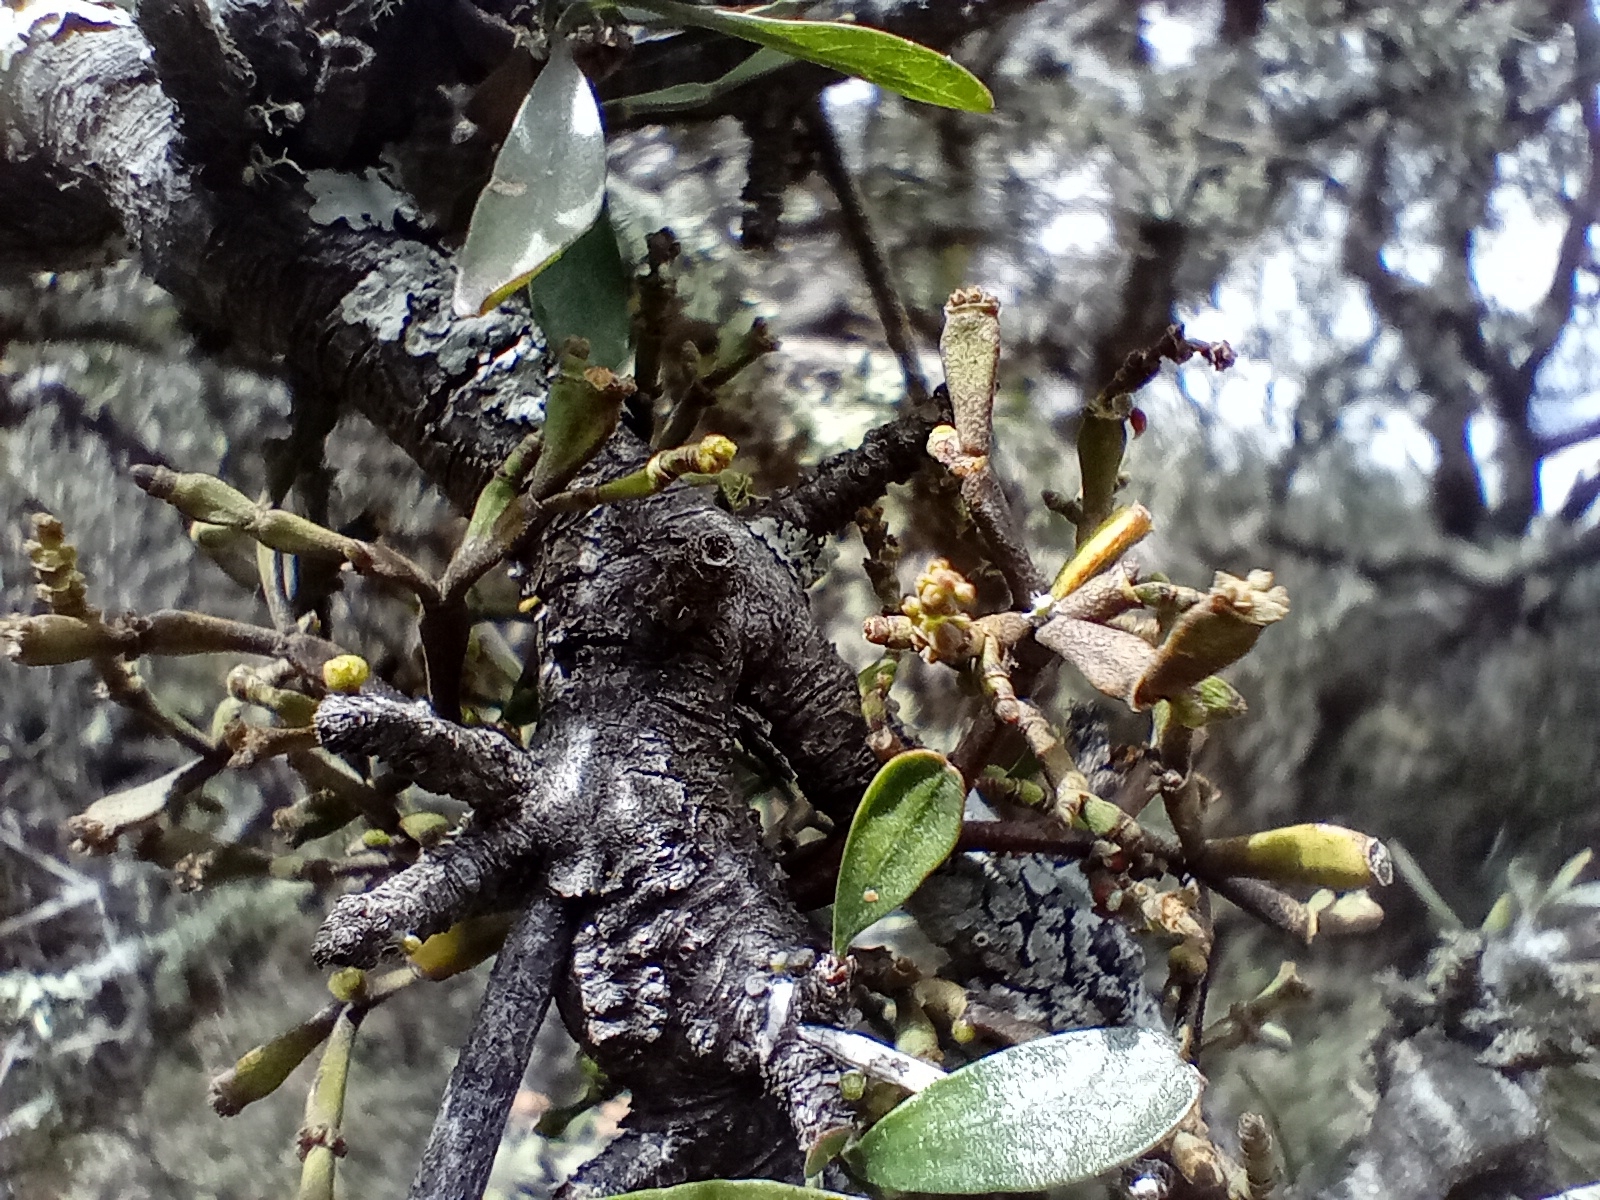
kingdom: Plantae
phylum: Tracheophyta
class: Magnoliopsida
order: Santalales
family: Viscaceae
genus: Korthalsella
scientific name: Korthalsella clavata
